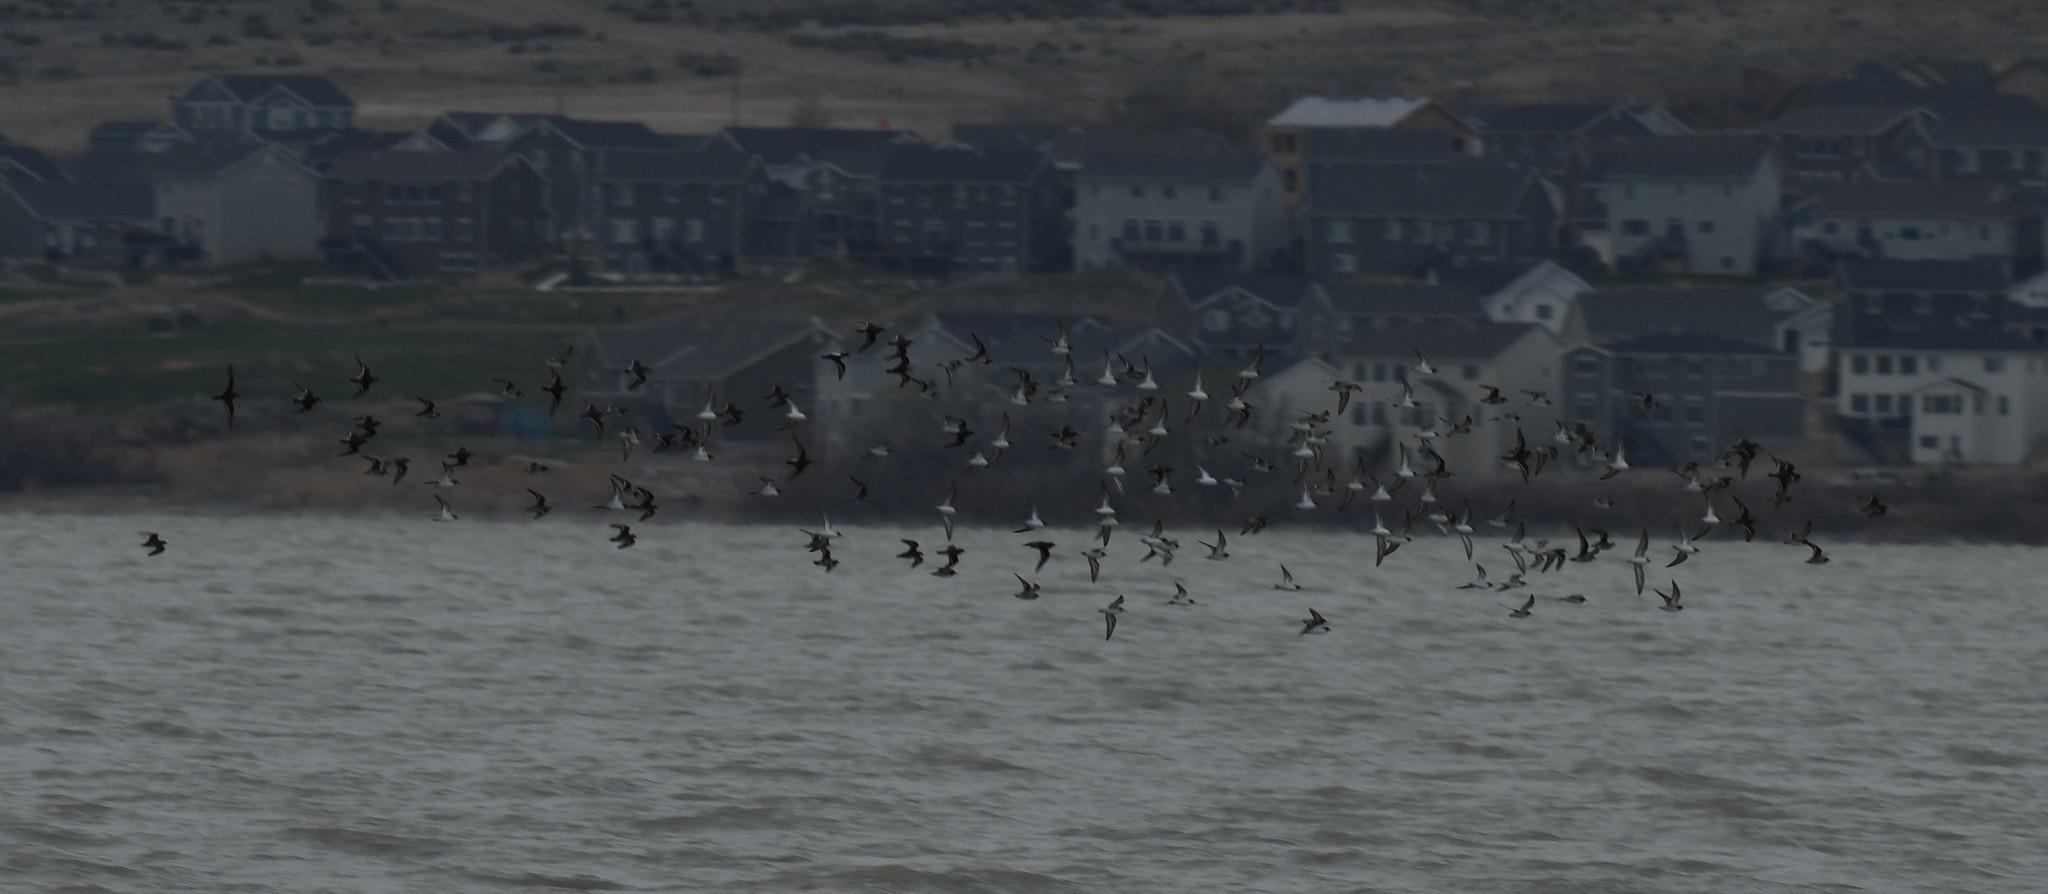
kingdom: Animalia
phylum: Chordata
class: Aves
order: Charadriiformes
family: Scolopacidae
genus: Phalaropus
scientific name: Phalaropus lobatus
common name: Red-necked phalarope
